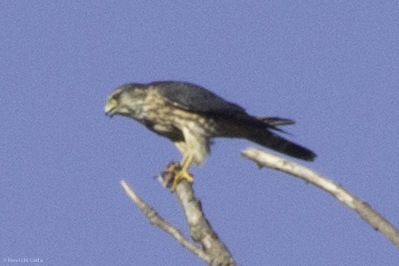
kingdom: Animalia
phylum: Chordata
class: Aves
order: Falconiformes
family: Falconidae
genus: Falco
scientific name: Falco columbarius
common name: Merlin
